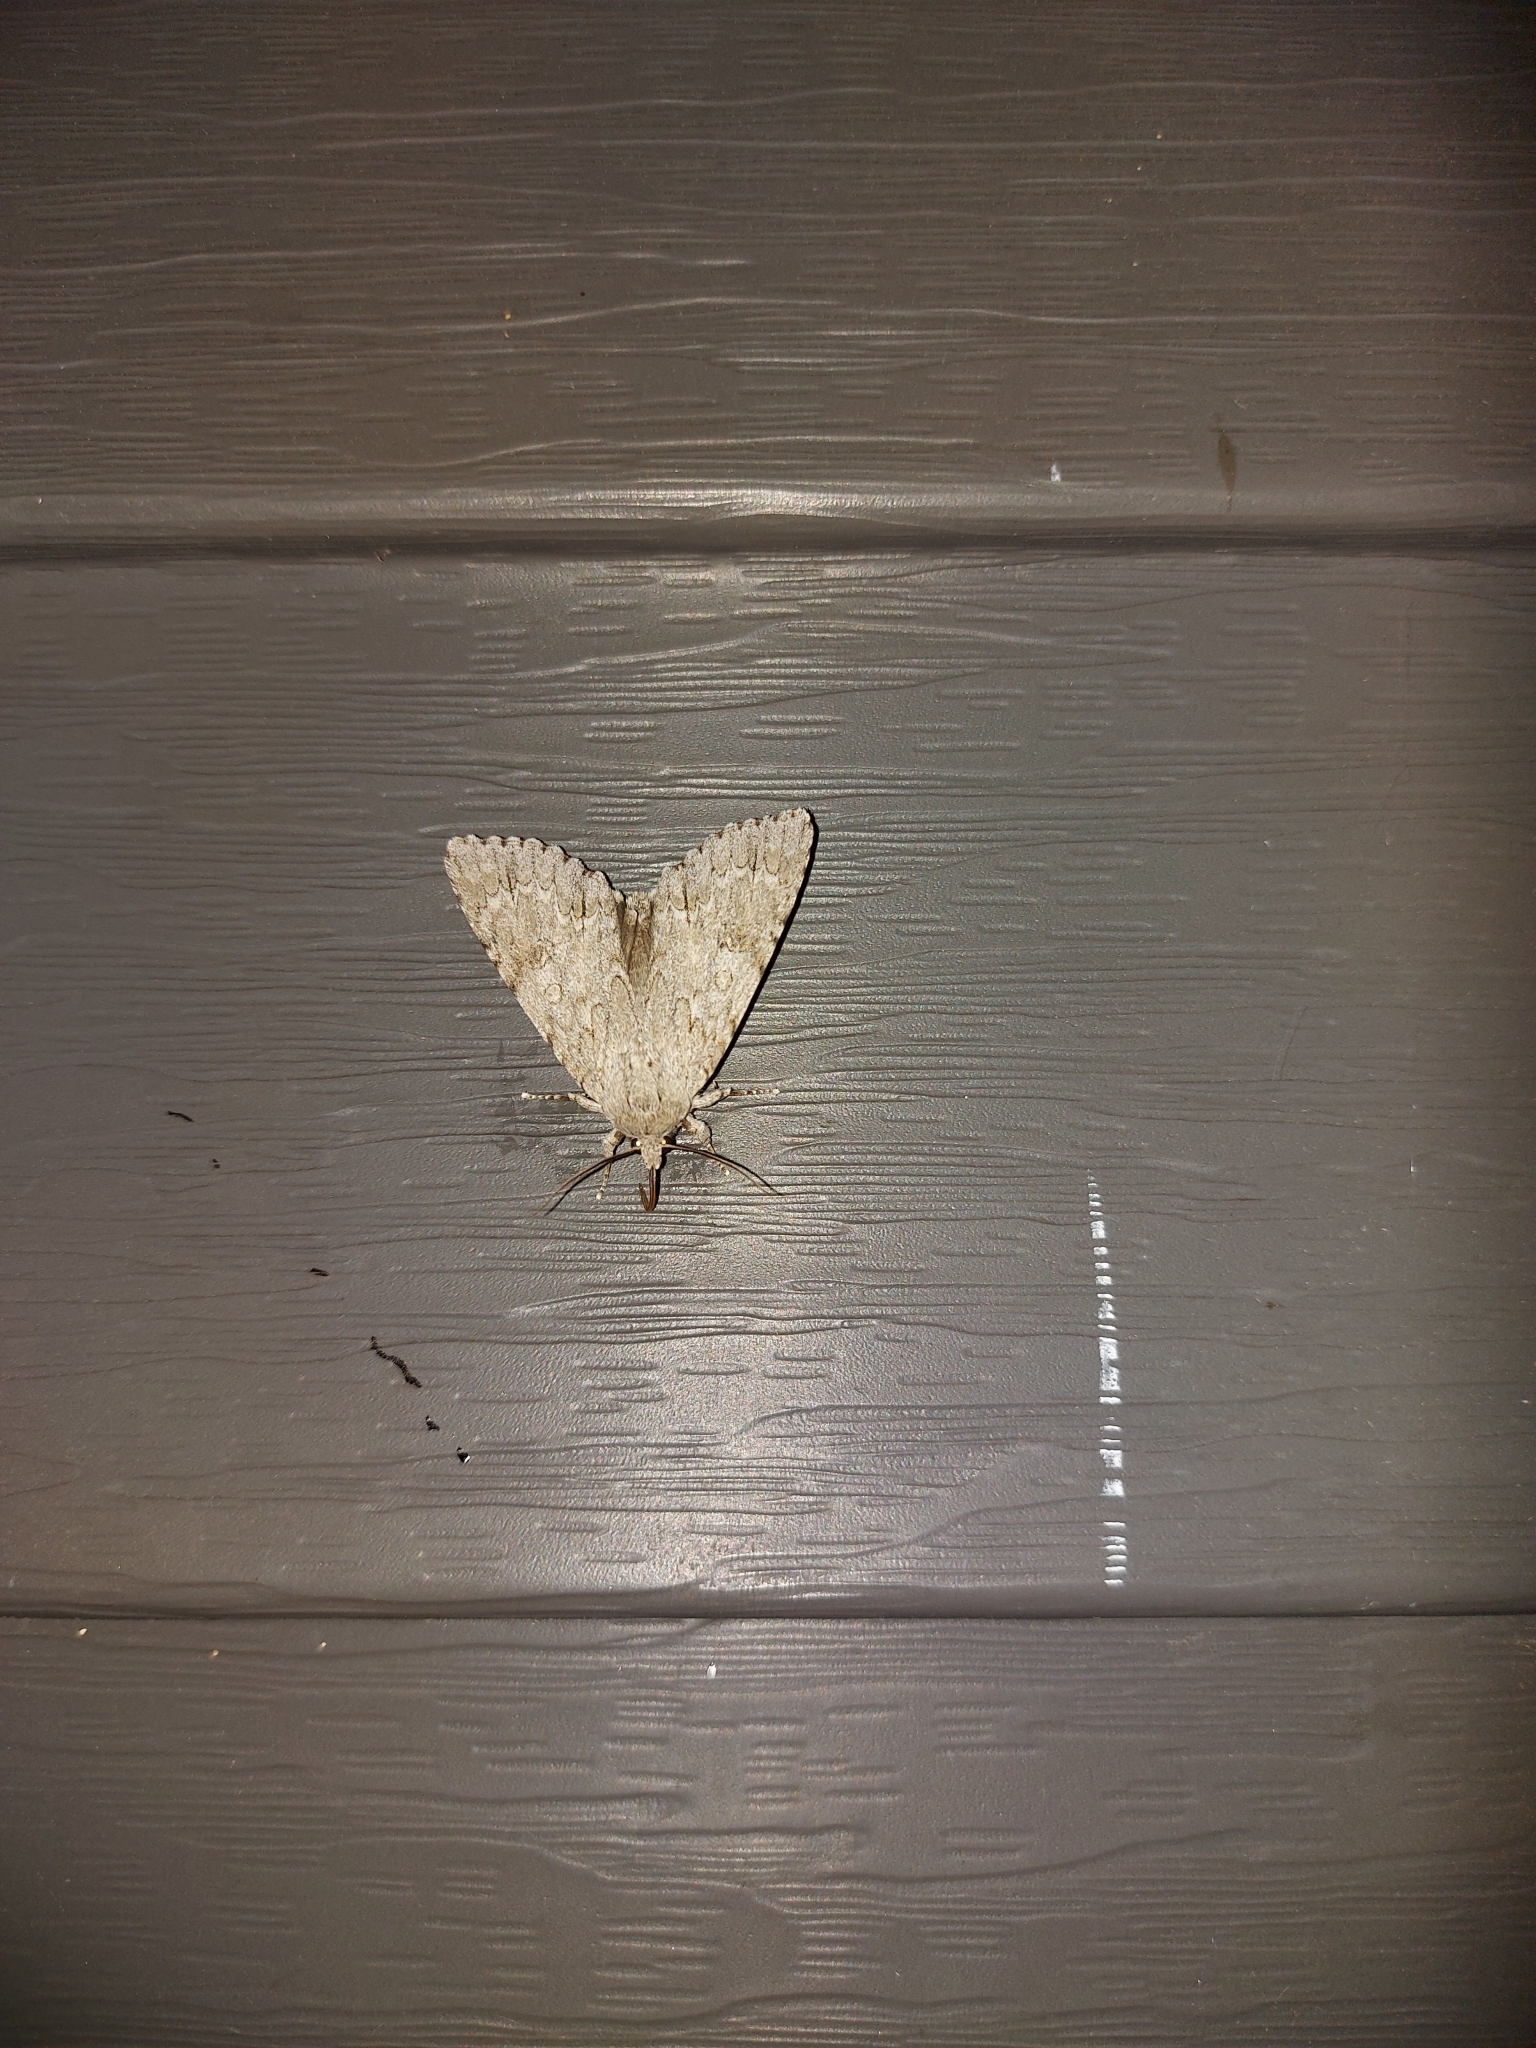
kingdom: Animalia
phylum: Arthropoda
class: Insecta
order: Lepidoptera
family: Noctuidae
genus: Acronicta
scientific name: Acronicta americana
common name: American dagger
